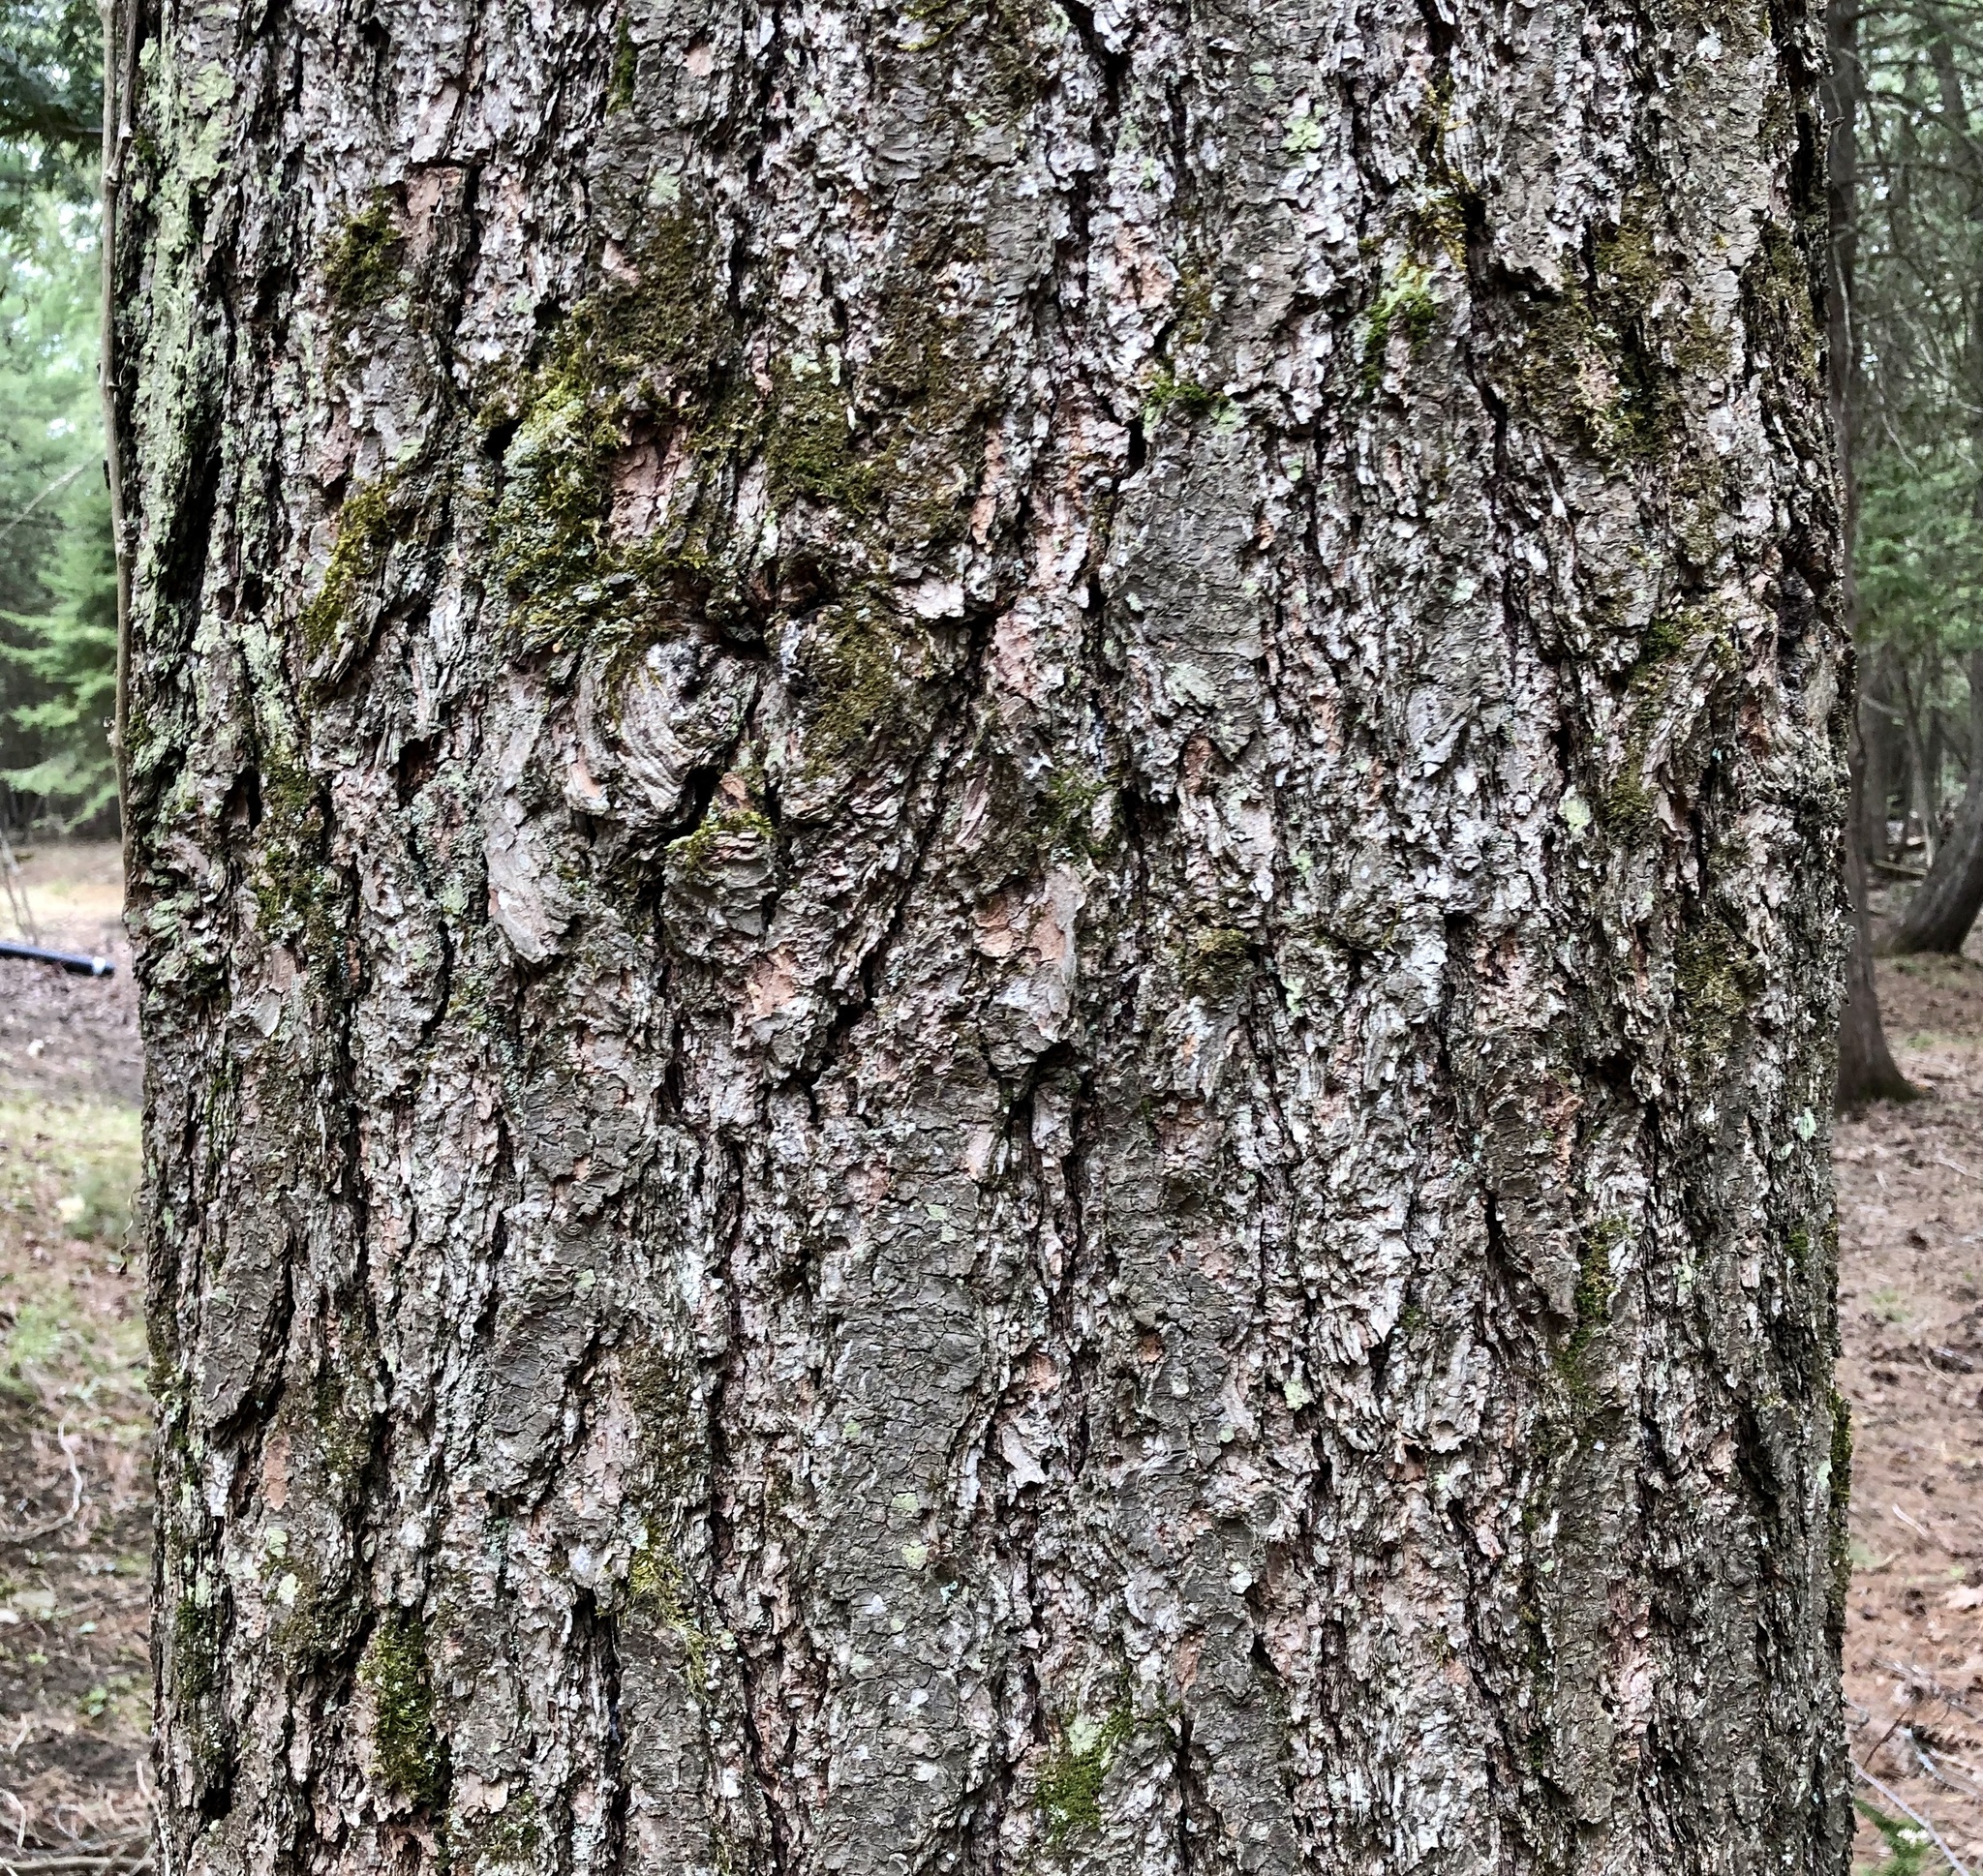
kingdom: Plantae
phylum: Tracheophyta
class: Pinopsida
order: Pinales
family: Pinaceae
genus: Pinus
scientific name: Pinus strobus
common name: Weymouth pine
